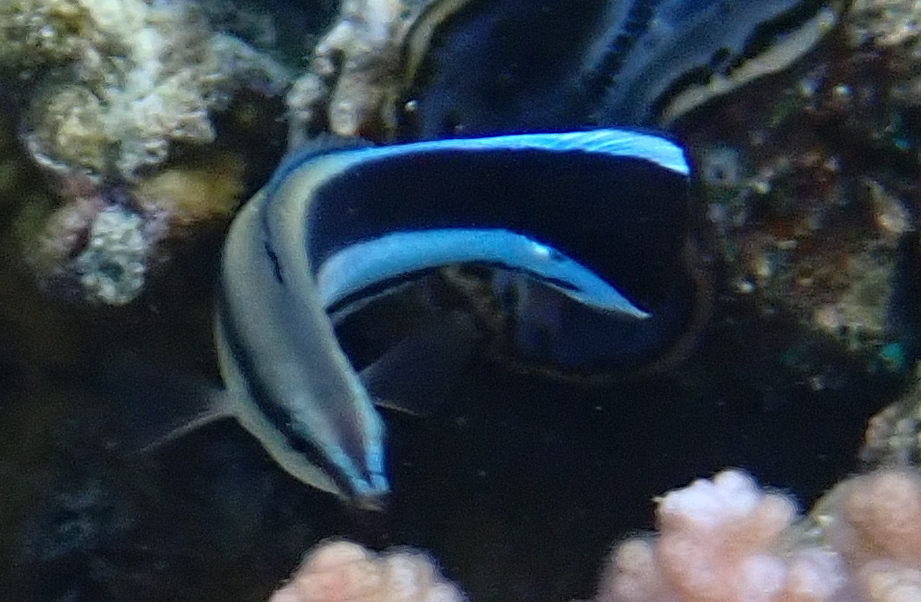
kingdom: Animalia
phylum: Chordata
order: Perciformes
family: Labridae
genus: Labroides
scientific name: Labroides dimidiatus
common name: Blue diesel wrasse
